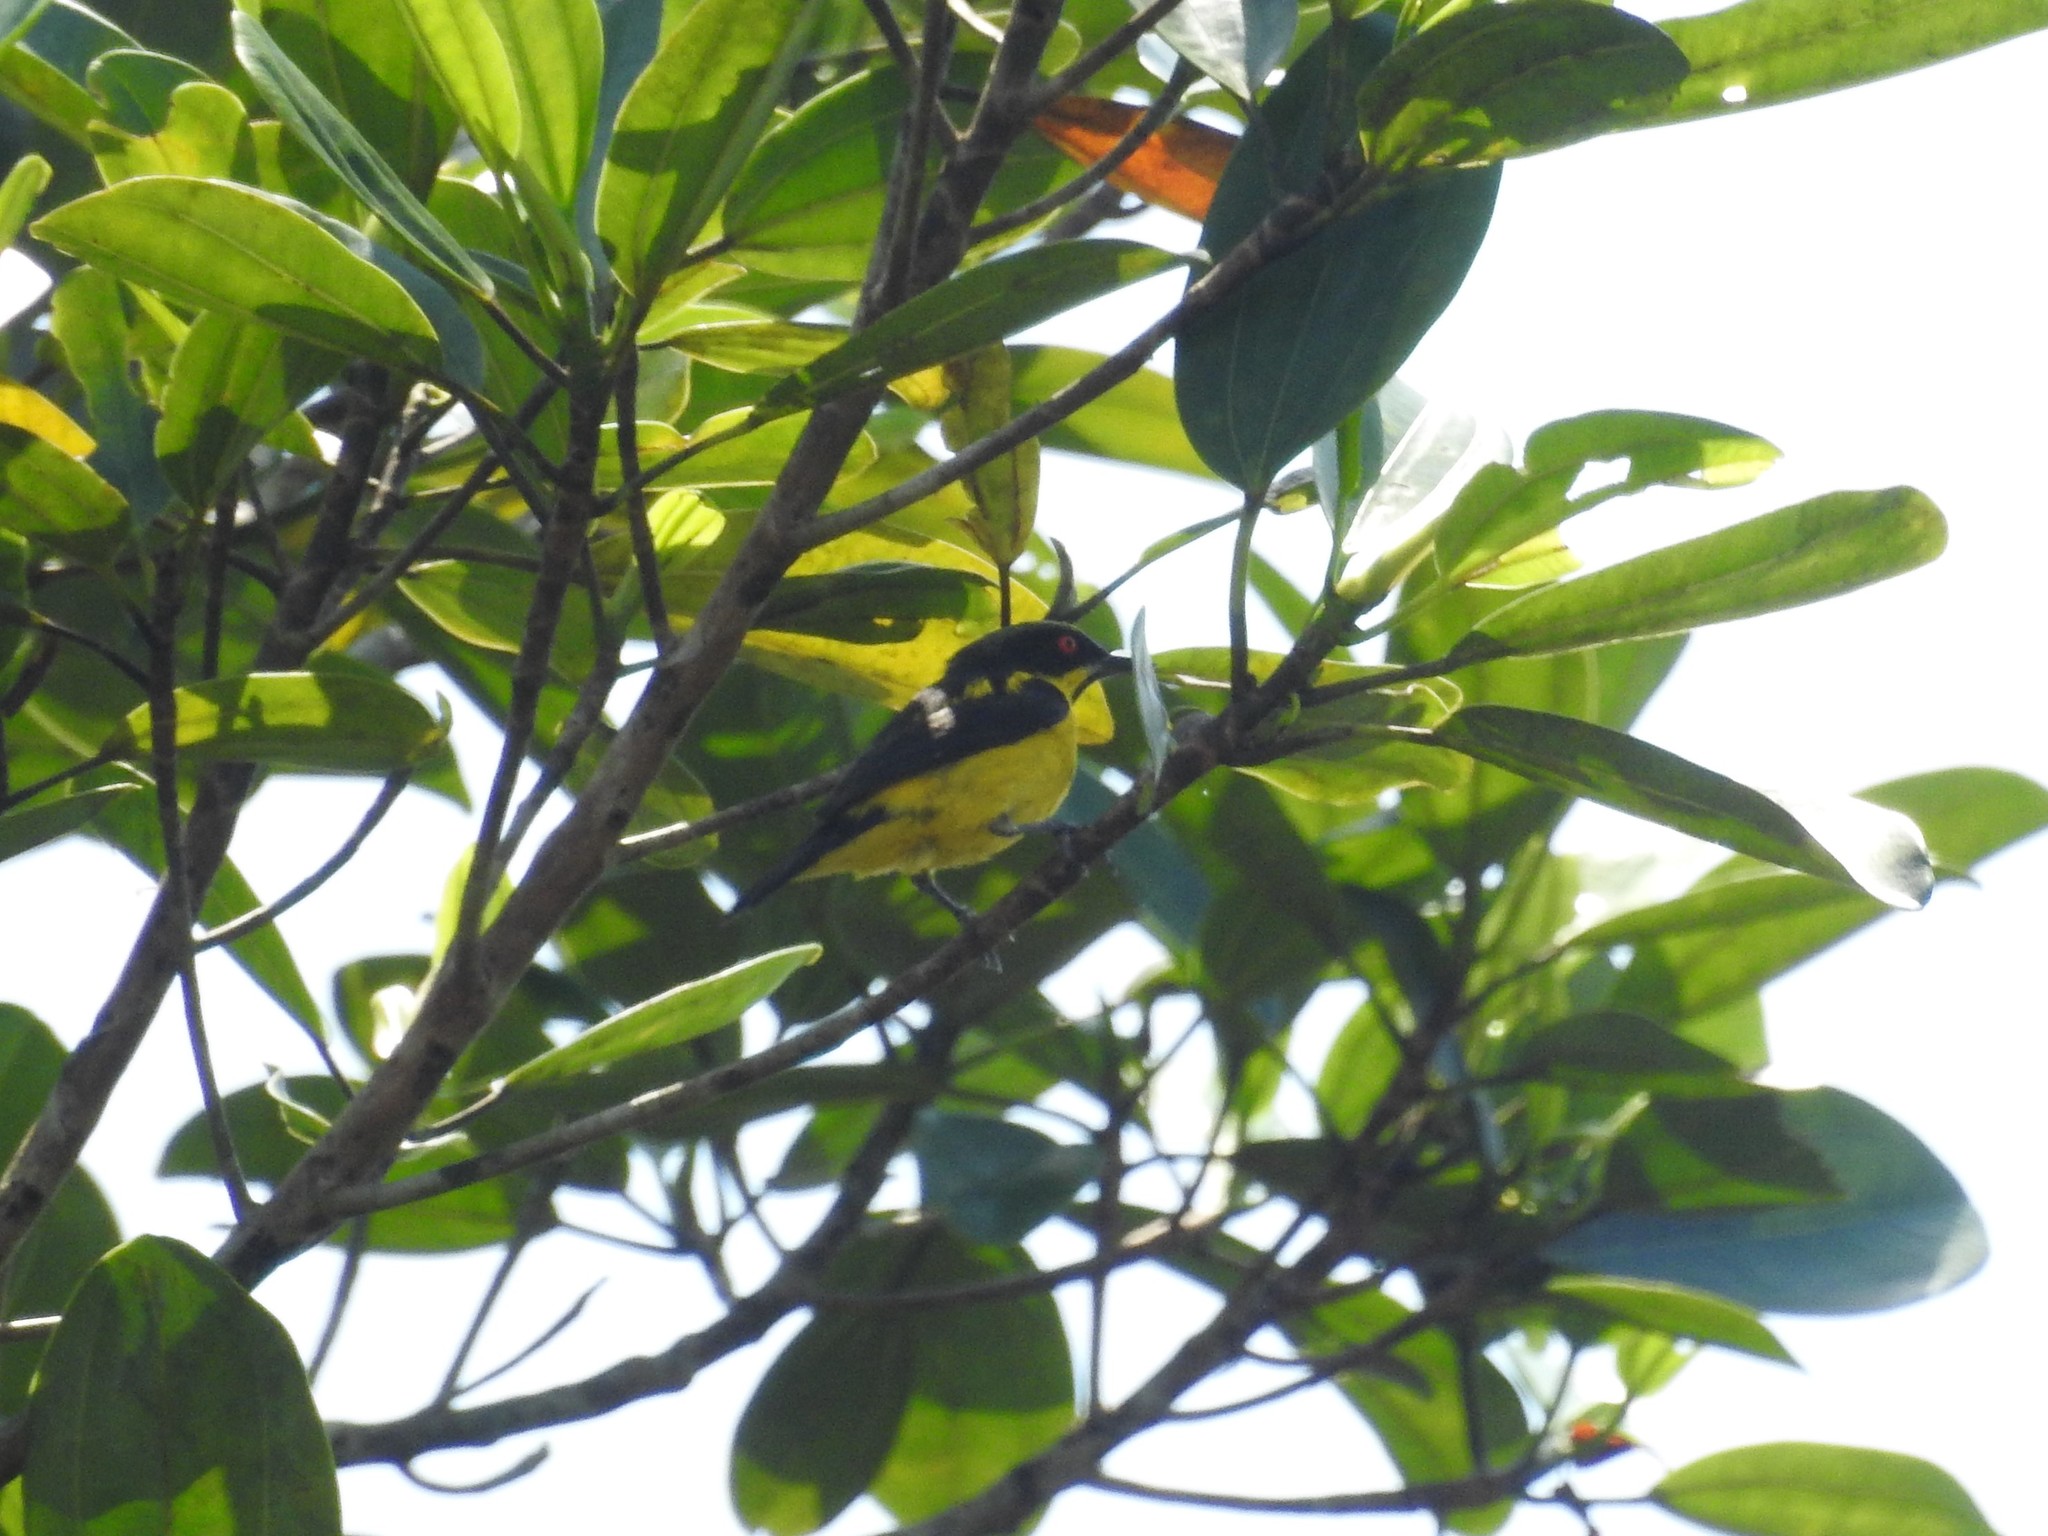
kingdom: Animalia
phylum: Chordata
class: Aves
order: Passeriformes
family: Thraupidae
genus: Dacnis
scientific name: Dacnis flaviventer
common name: Yellow-bellied dacnis
